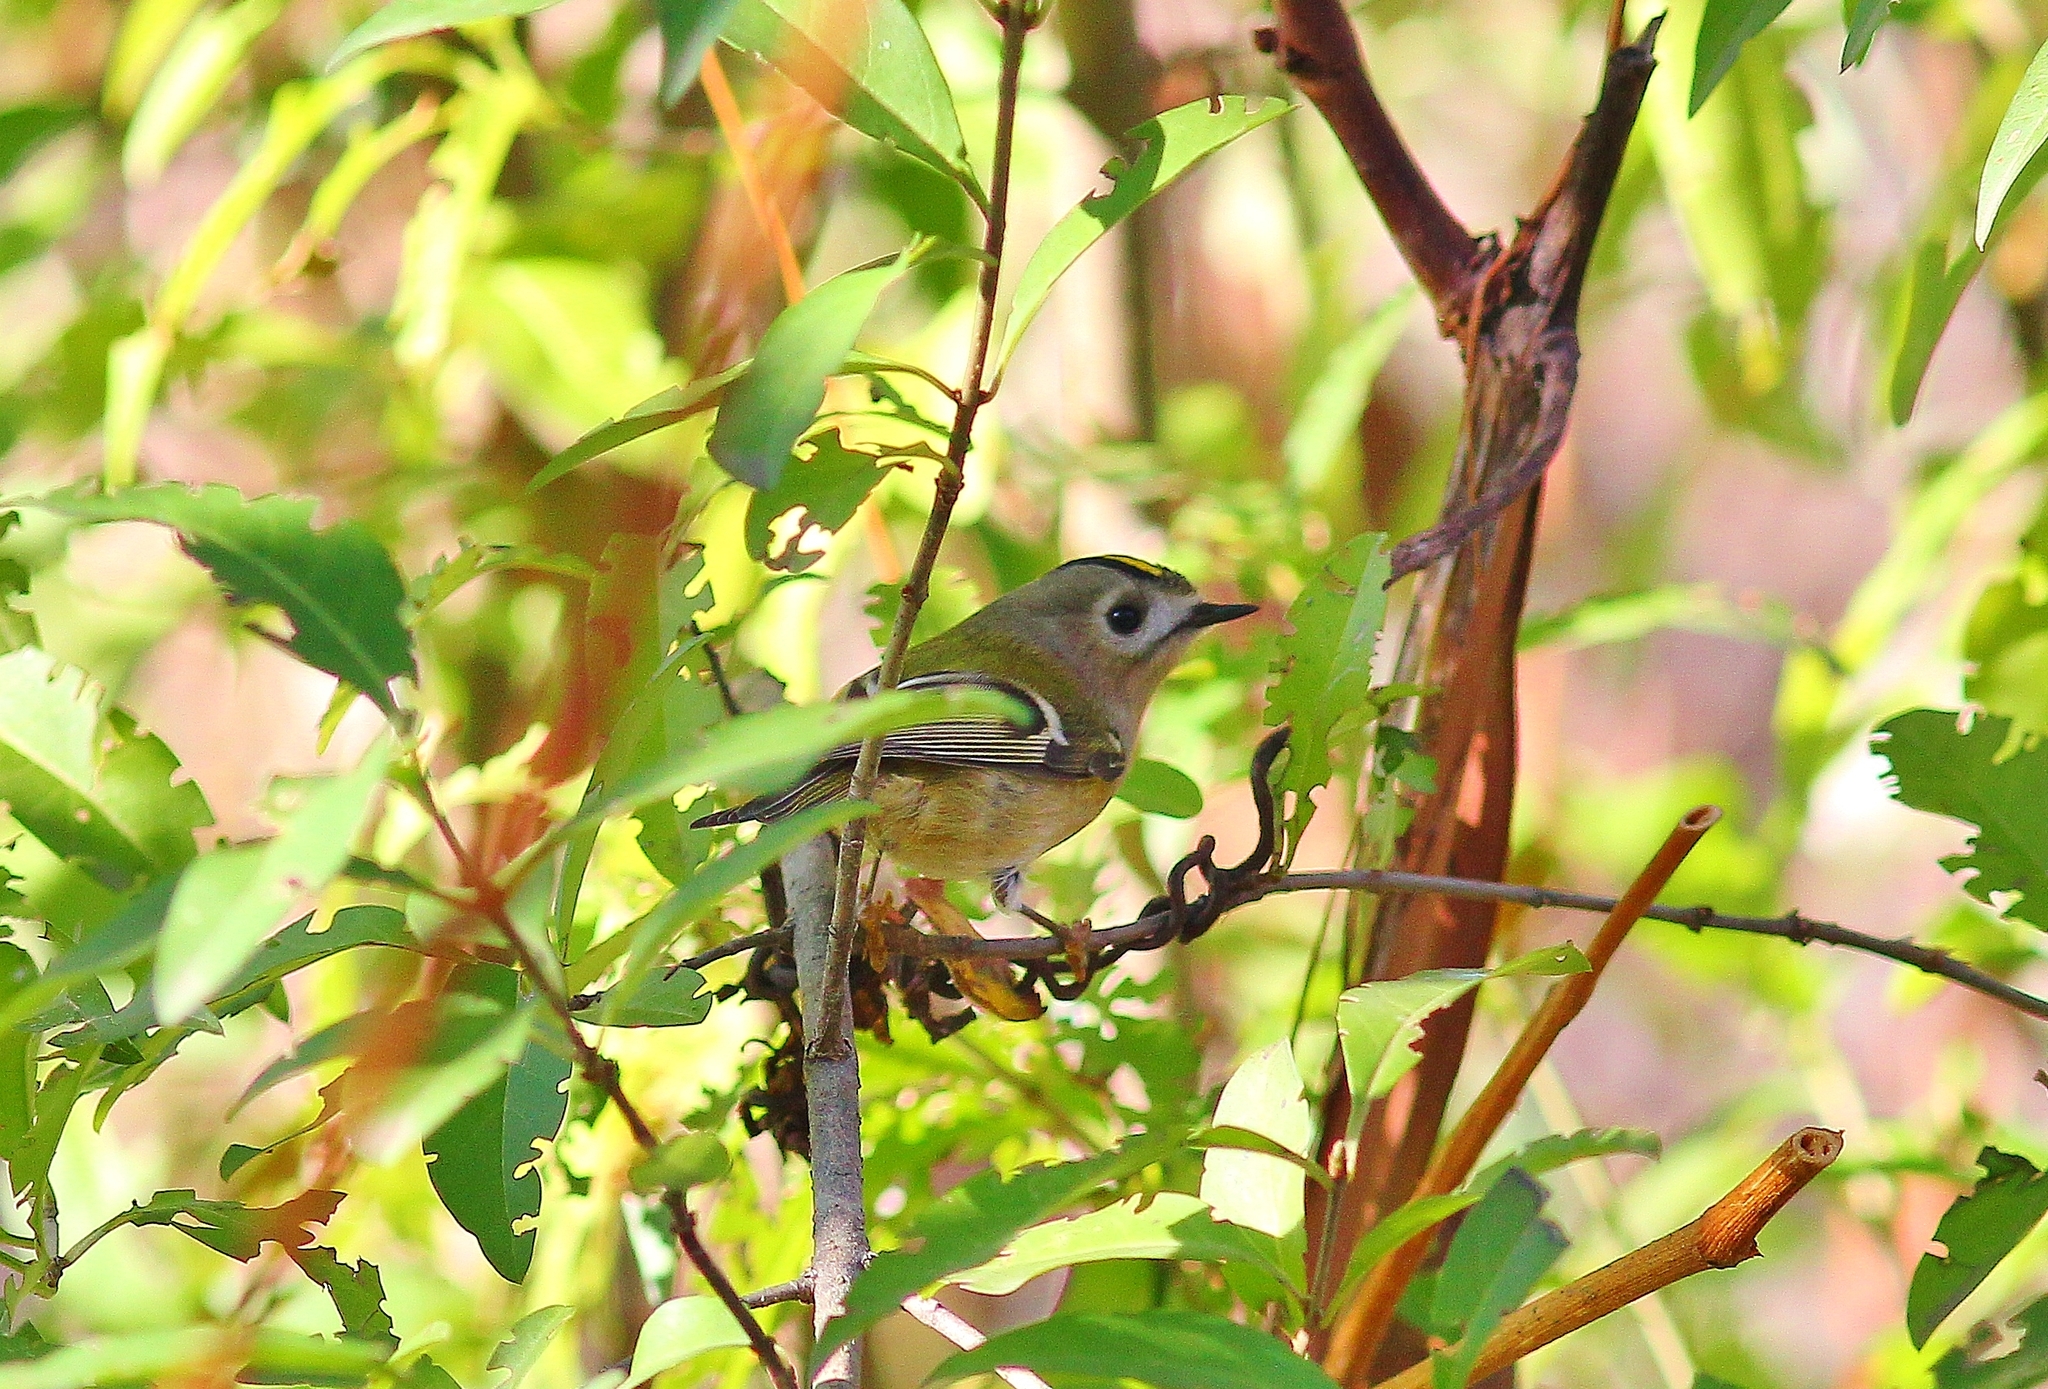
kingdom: Animalia
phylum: Chordata
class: Aves
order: Passeriformes
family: Regulidae
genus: Regulus
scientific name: Regulus regulus
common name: Goldcrest
